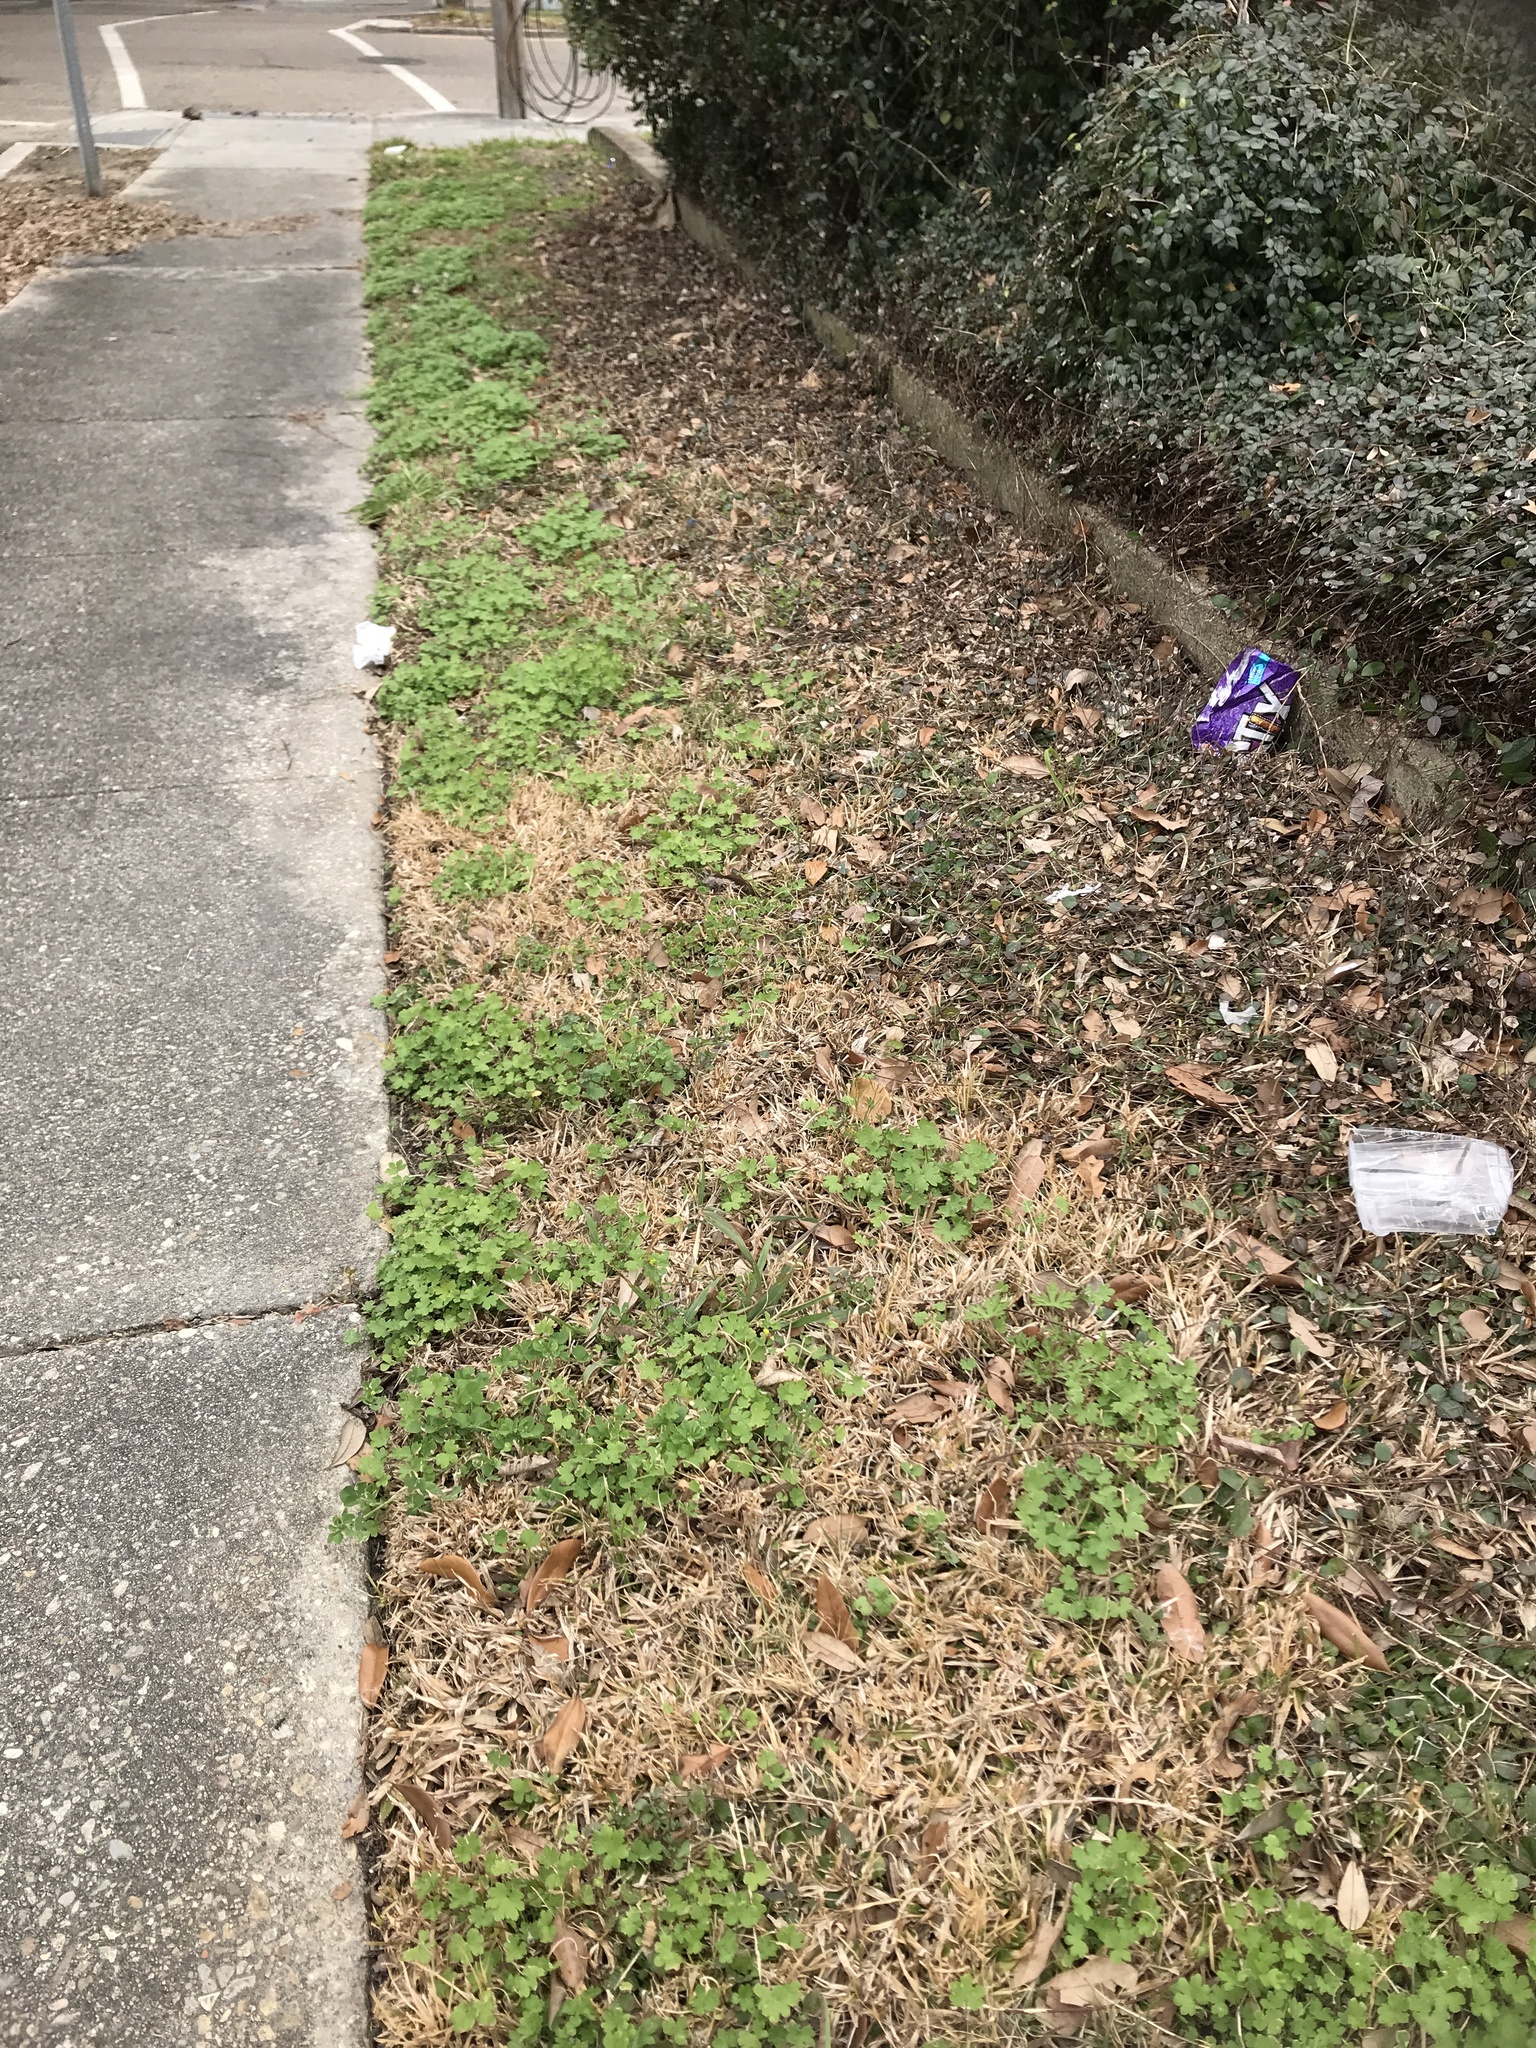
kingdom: Plantae
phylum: Tracheophyta
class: Magnoliopsida
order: Apiales
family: Apiaceae
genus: Bowlesia
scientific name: Bowlesia incana
